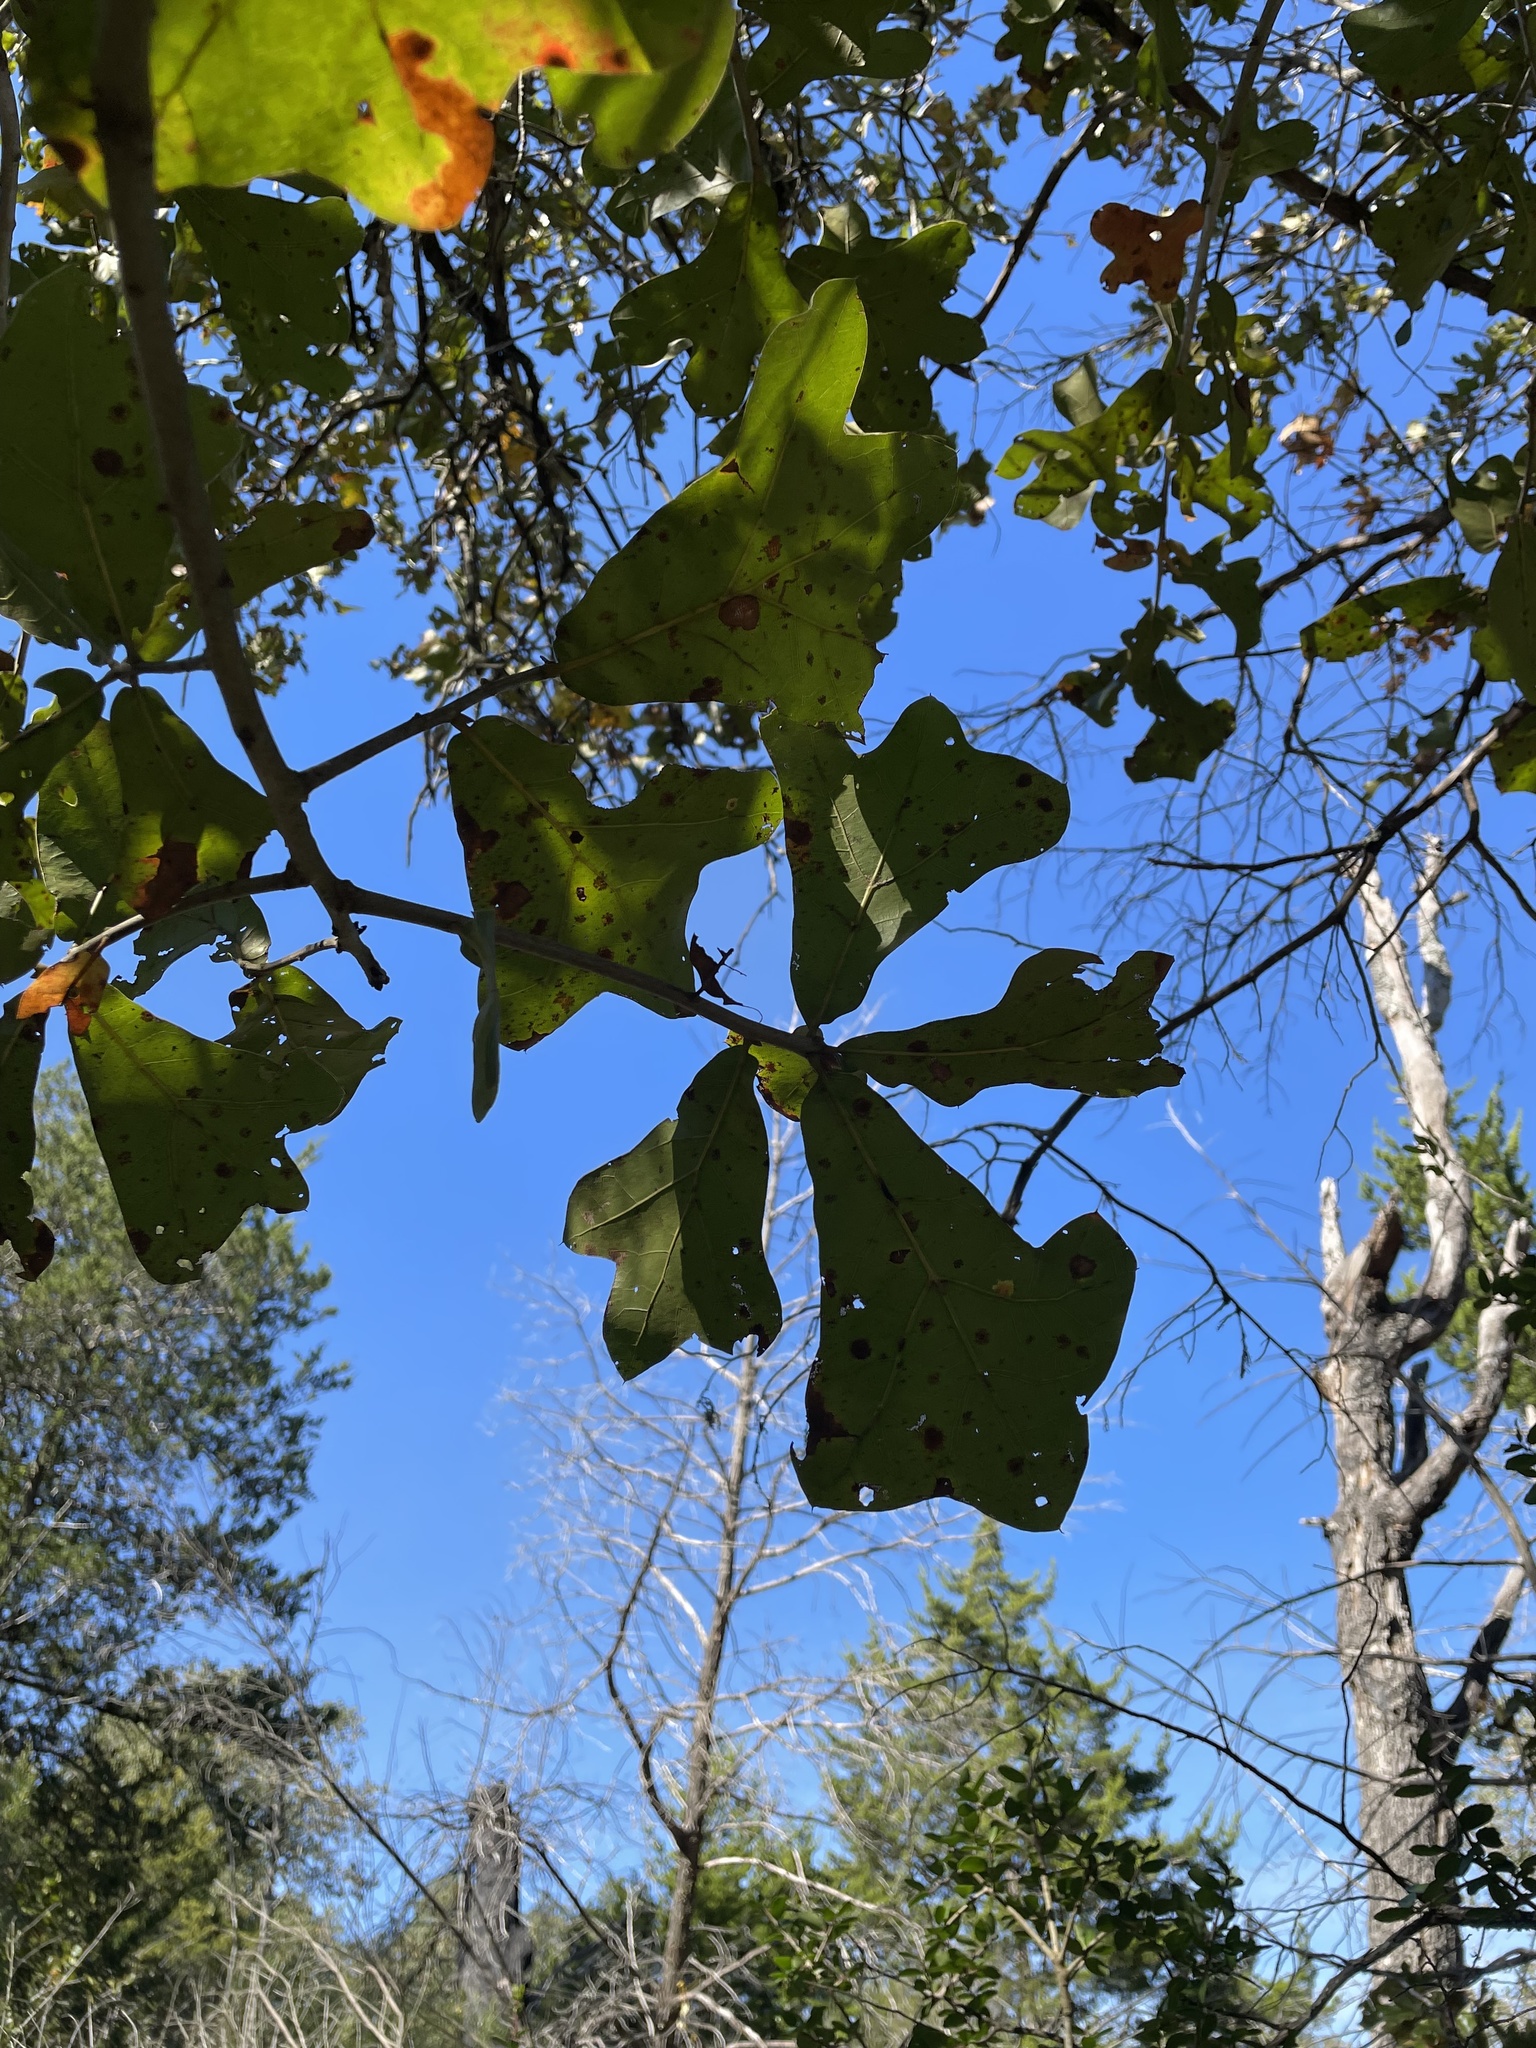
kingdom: Plantae
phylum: Tracheophyta
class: Magnoliopsida
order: Fagales
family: Fagaceae
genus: Quercus
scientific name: Quercus marilandica
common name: Blackjack oak
